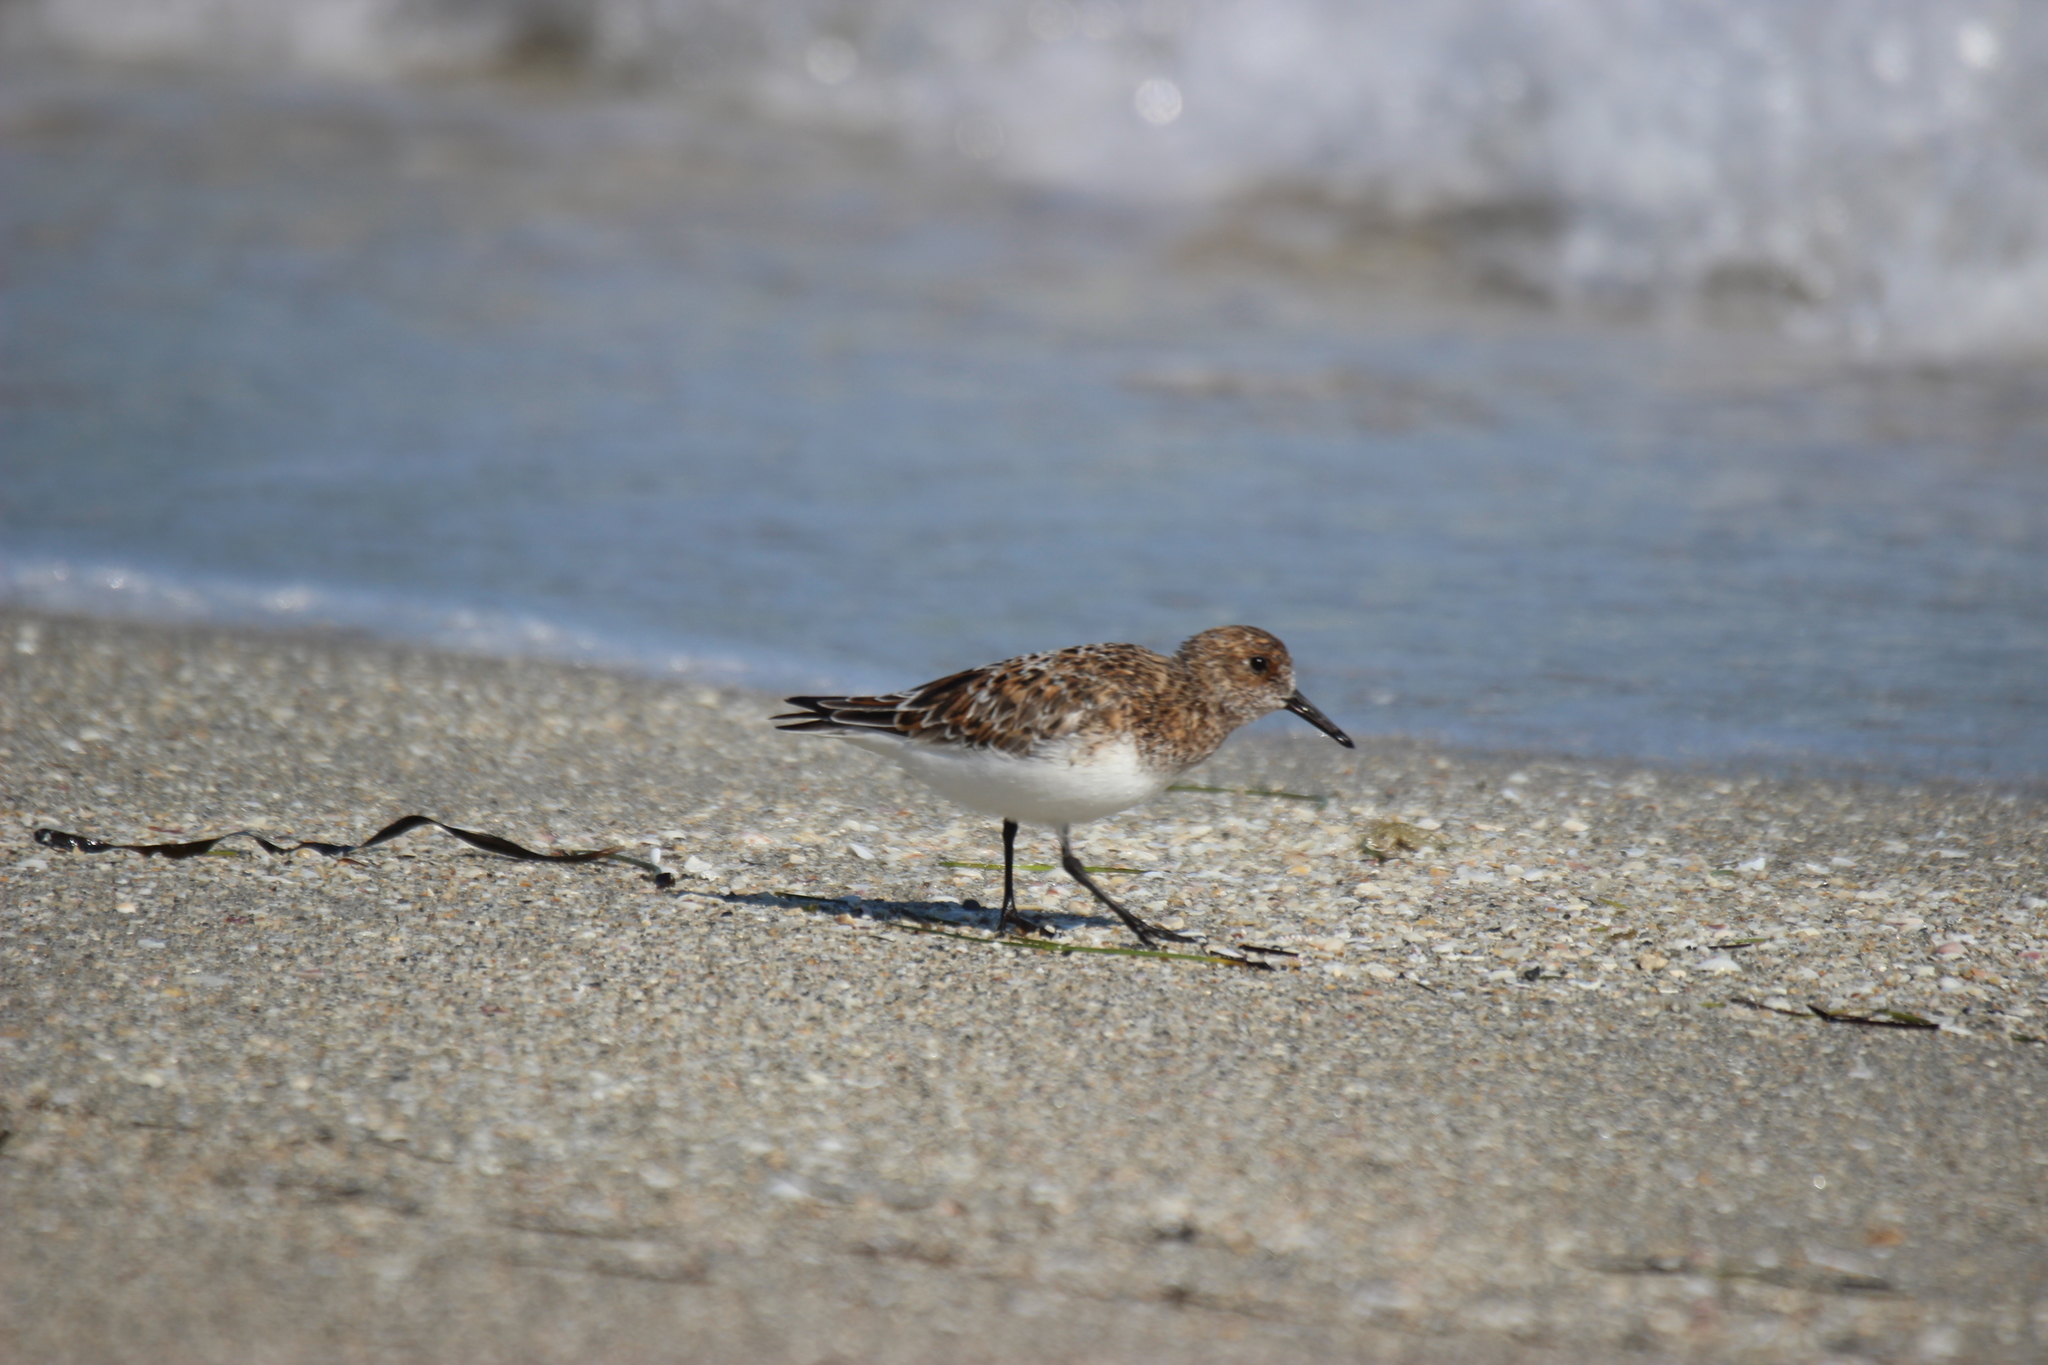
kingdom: Animalia
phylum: Chordata
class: Aves
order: Charadriiformes
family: Scolopacidae
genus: Calidris
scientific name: Calidris alba
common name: Sanderling
